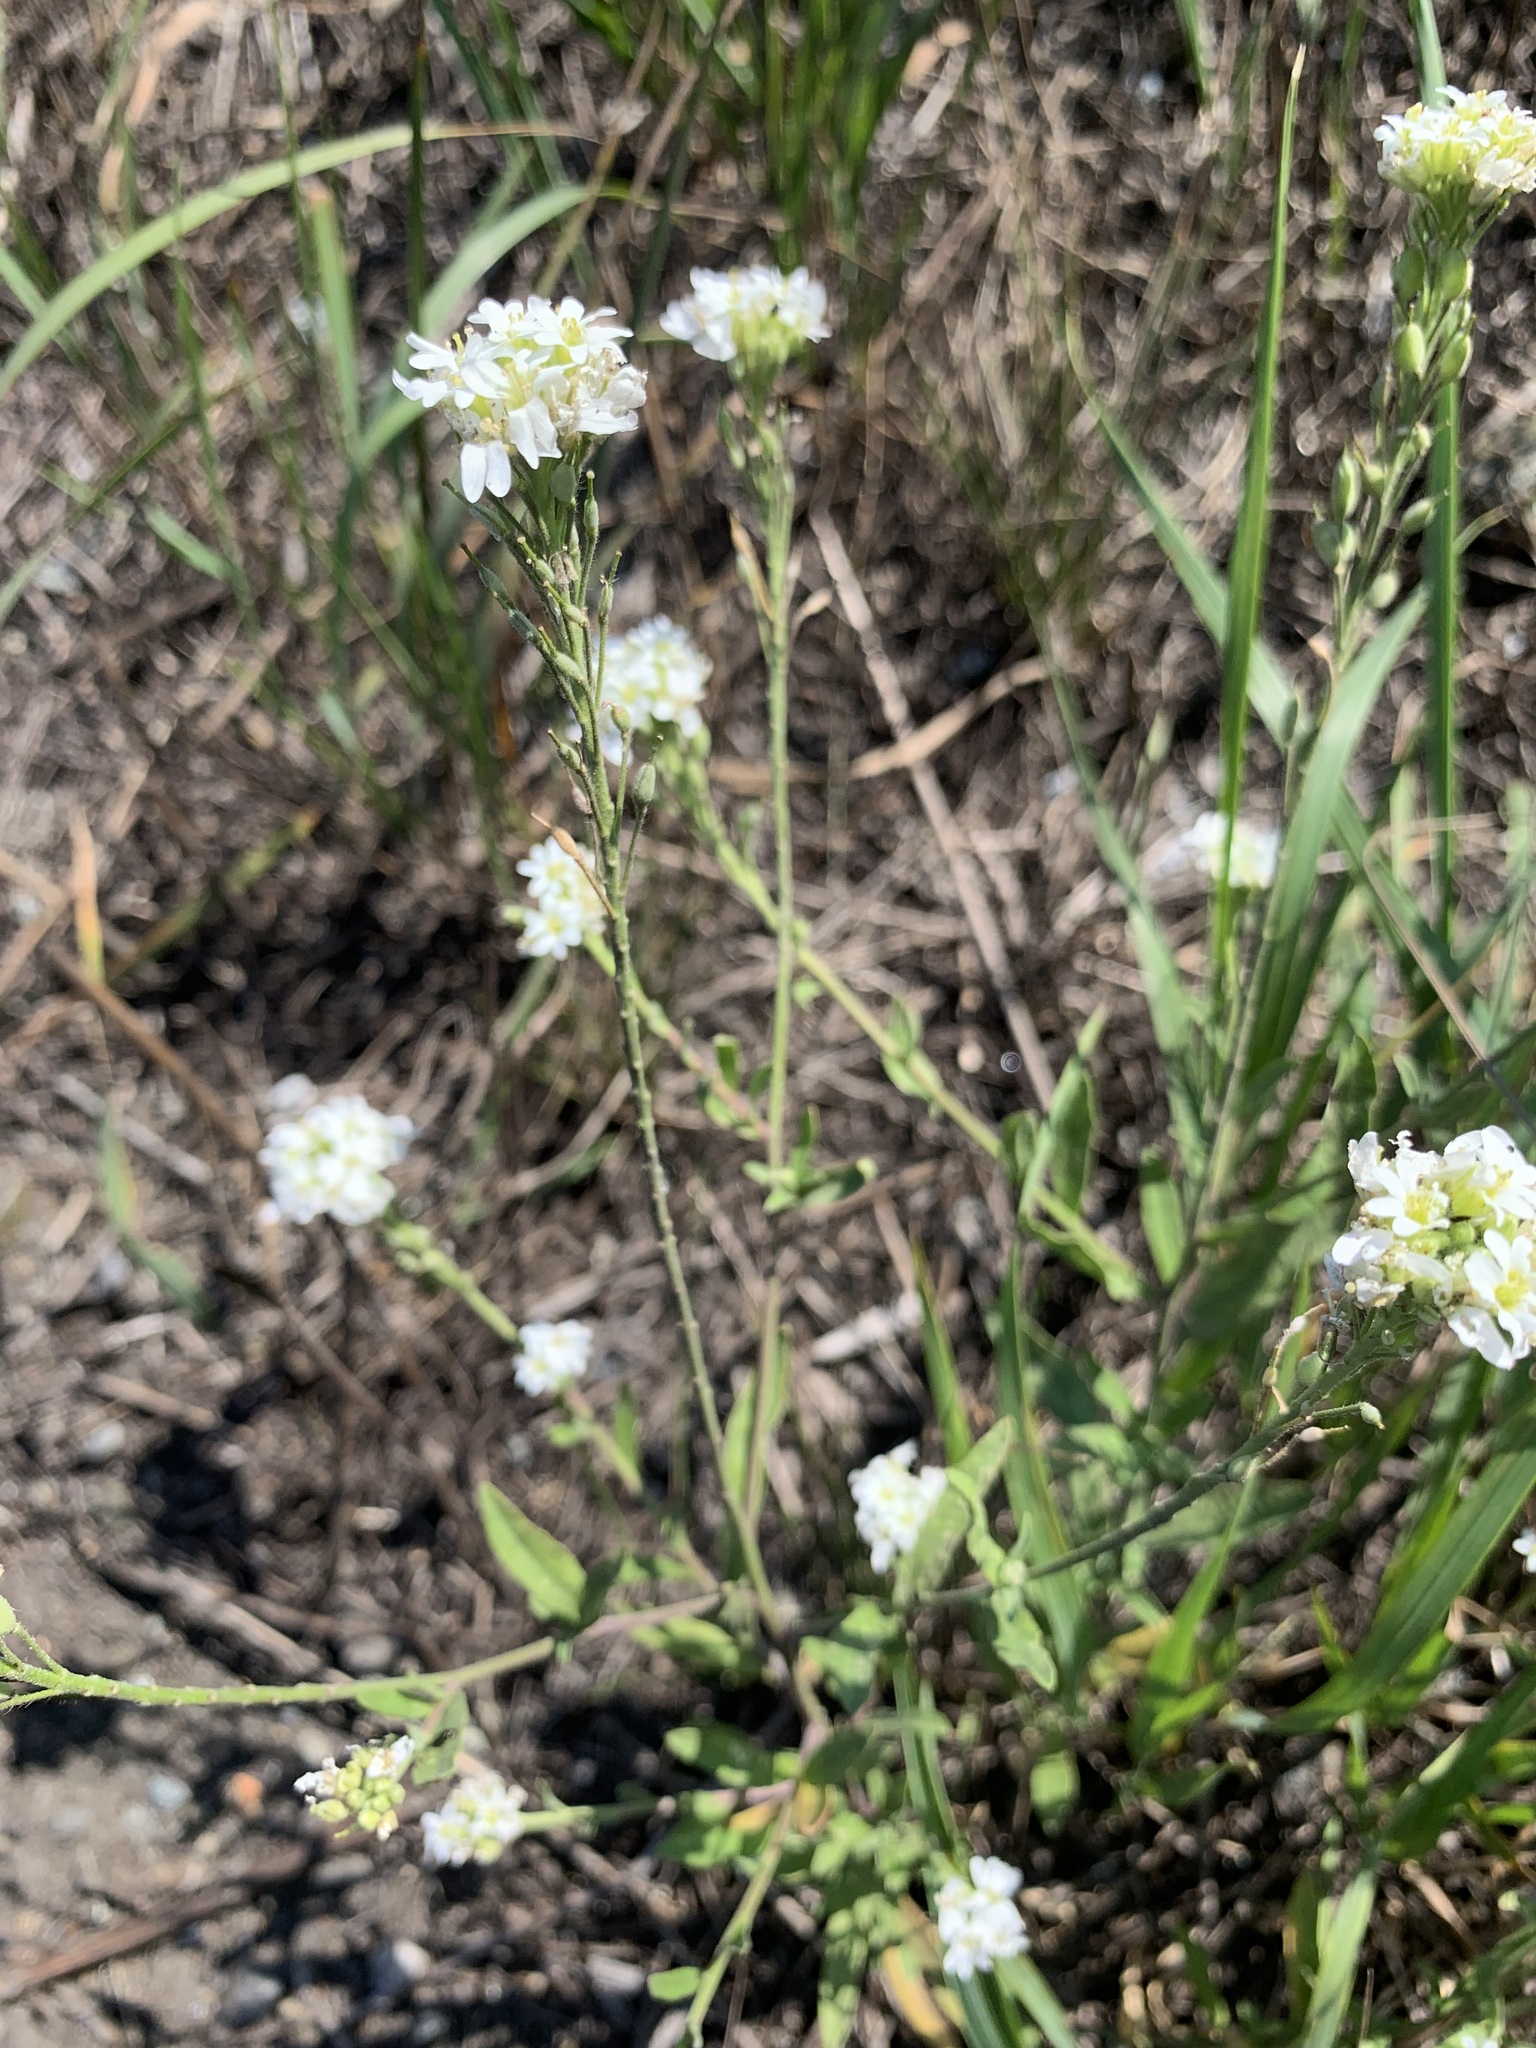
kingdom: Plantae
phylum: Tracheophyta
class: Magnoliopsida
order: Brassicales
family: Brassicaceae
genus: Berteroa
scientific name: Berteroa incana
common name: Hoary alison
